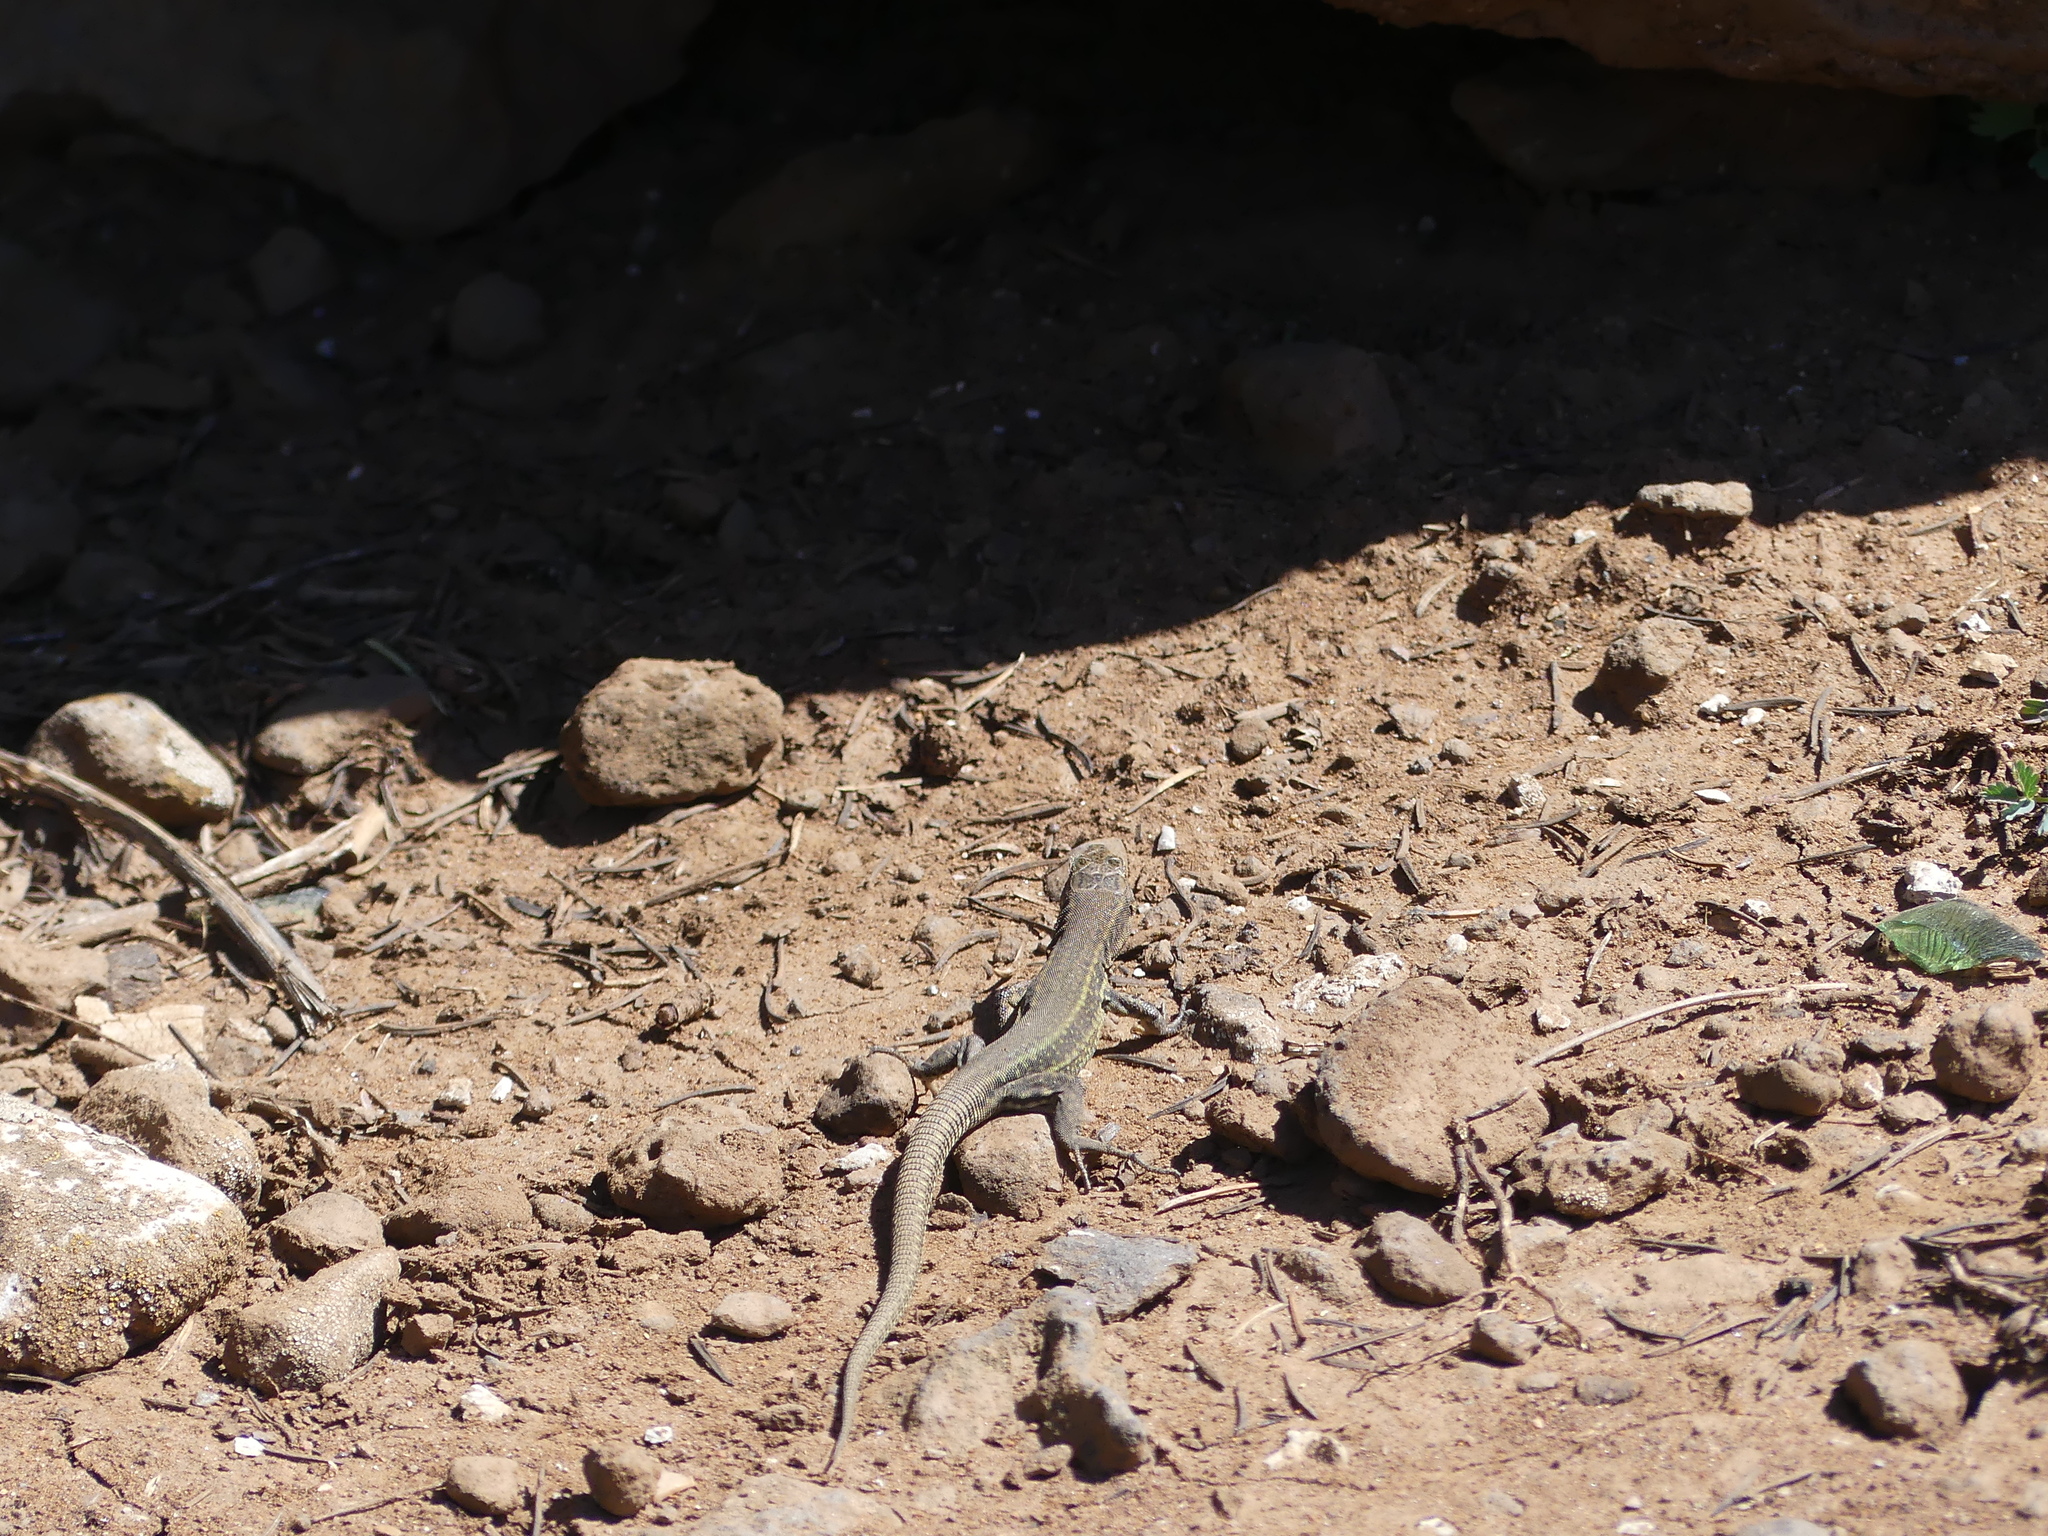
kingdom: Animalia
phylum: Chordata
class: Squamata
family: Lacertidae
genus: Podarcis
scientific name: Podarcis vaucheri
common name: Vaucher's wall lizard
